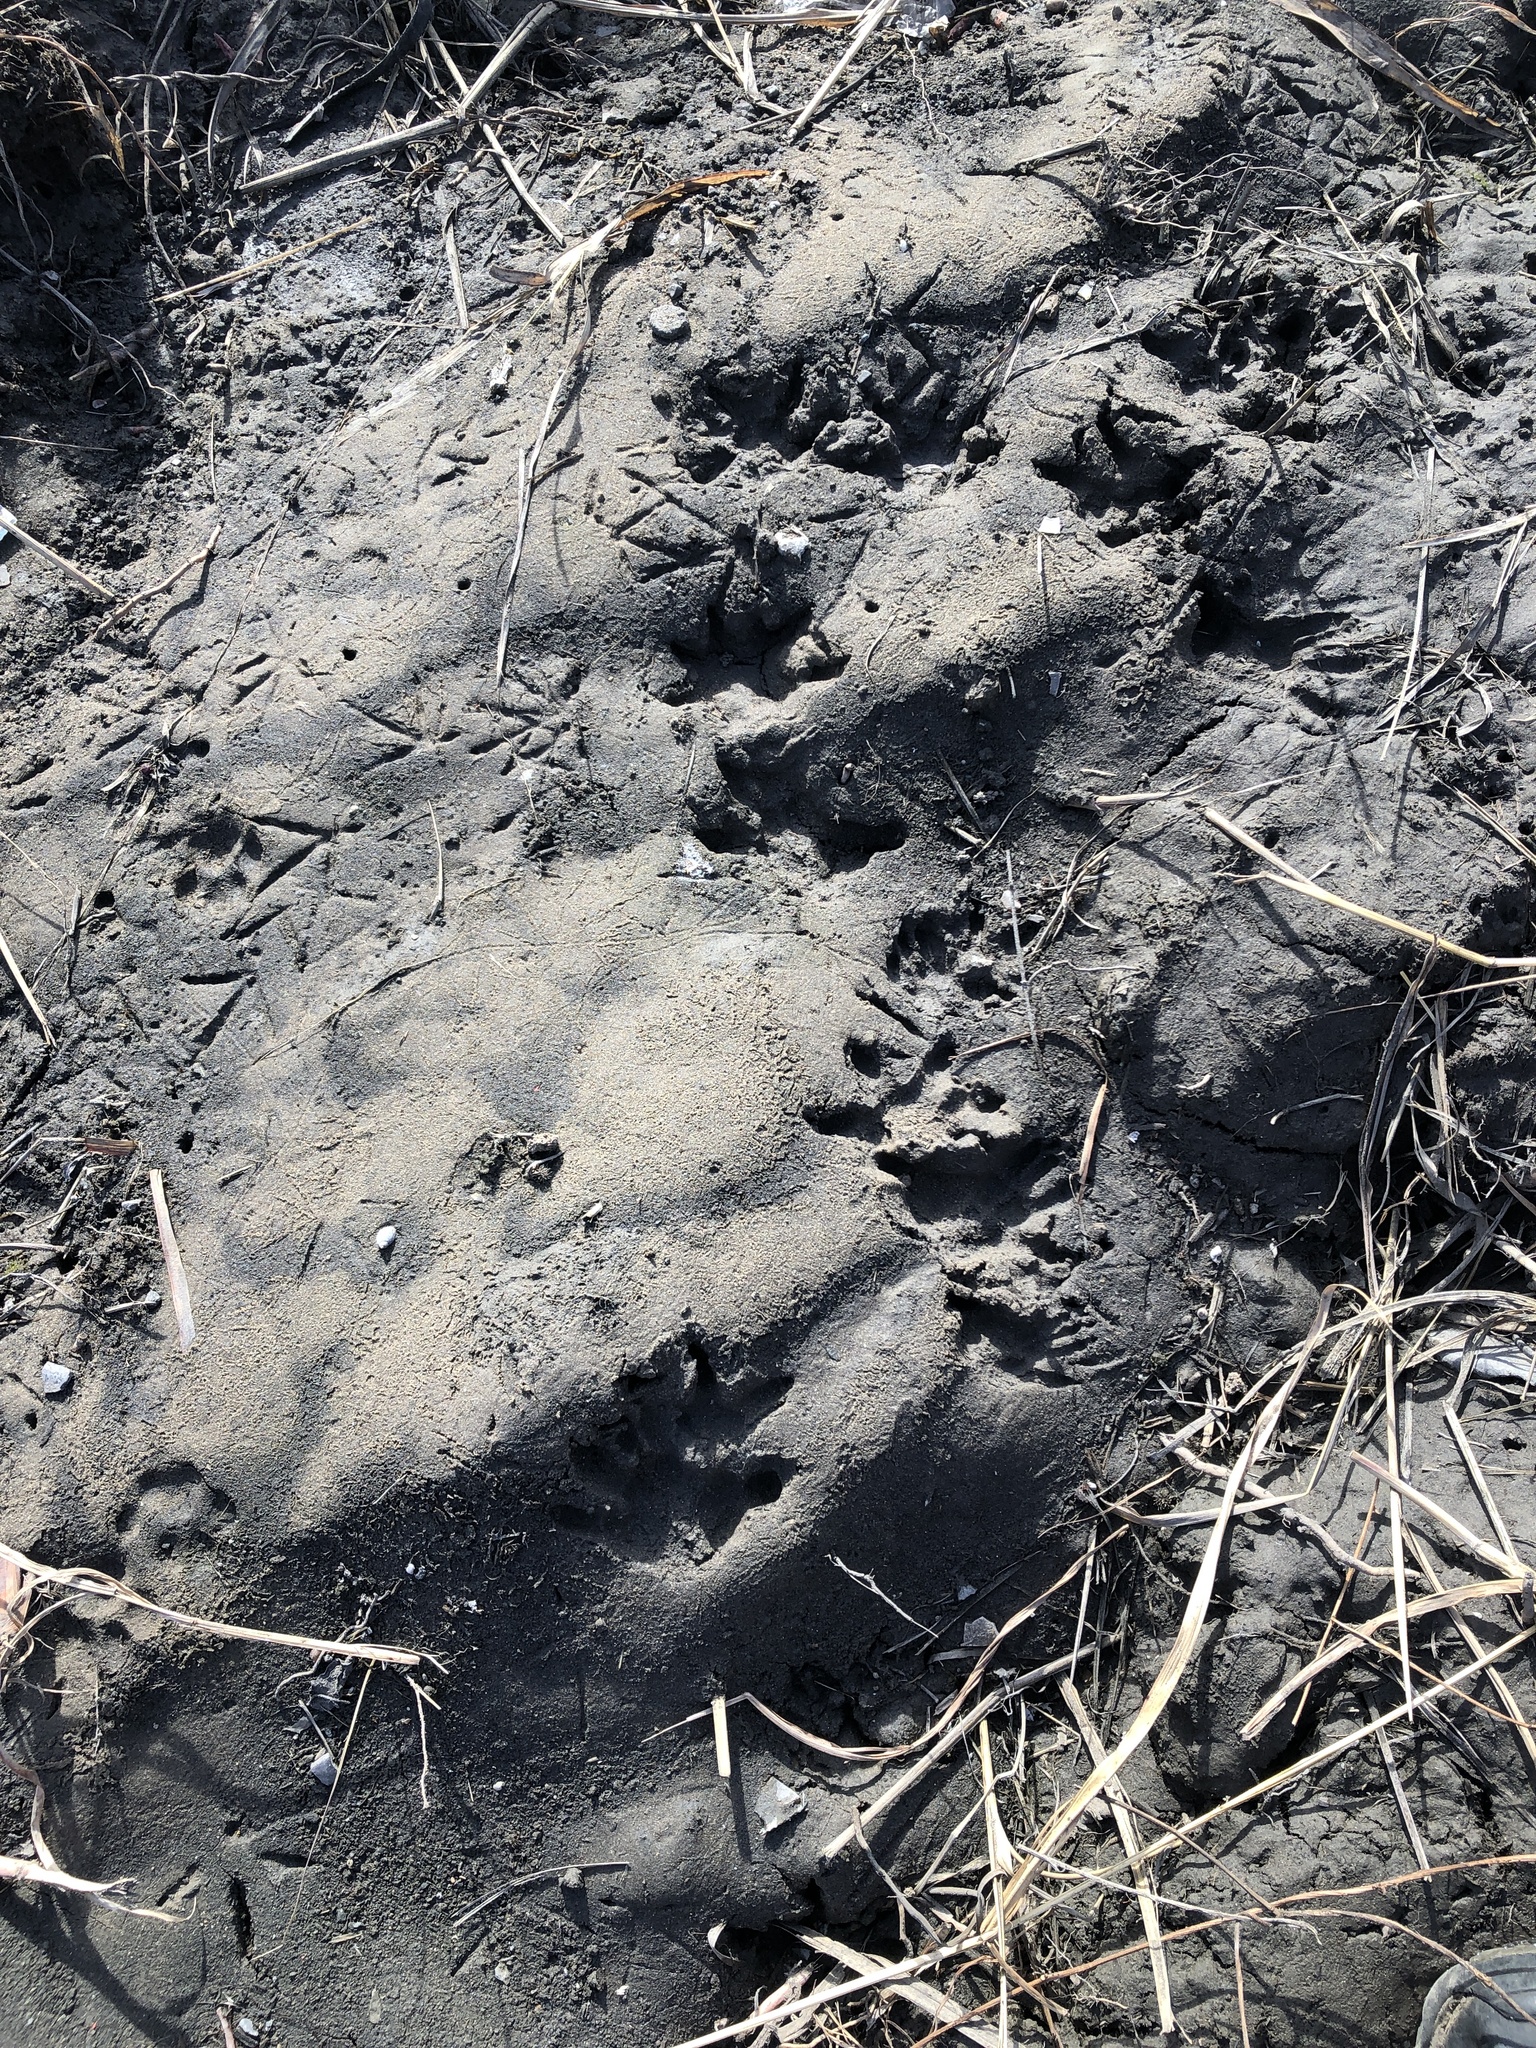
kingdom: Animalia
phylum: Chordata
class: Mammalia
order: Didelphimorphia
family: Didelphidae
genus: Didelphis
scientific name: Didelphis virginiana
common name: Virginia opossum
